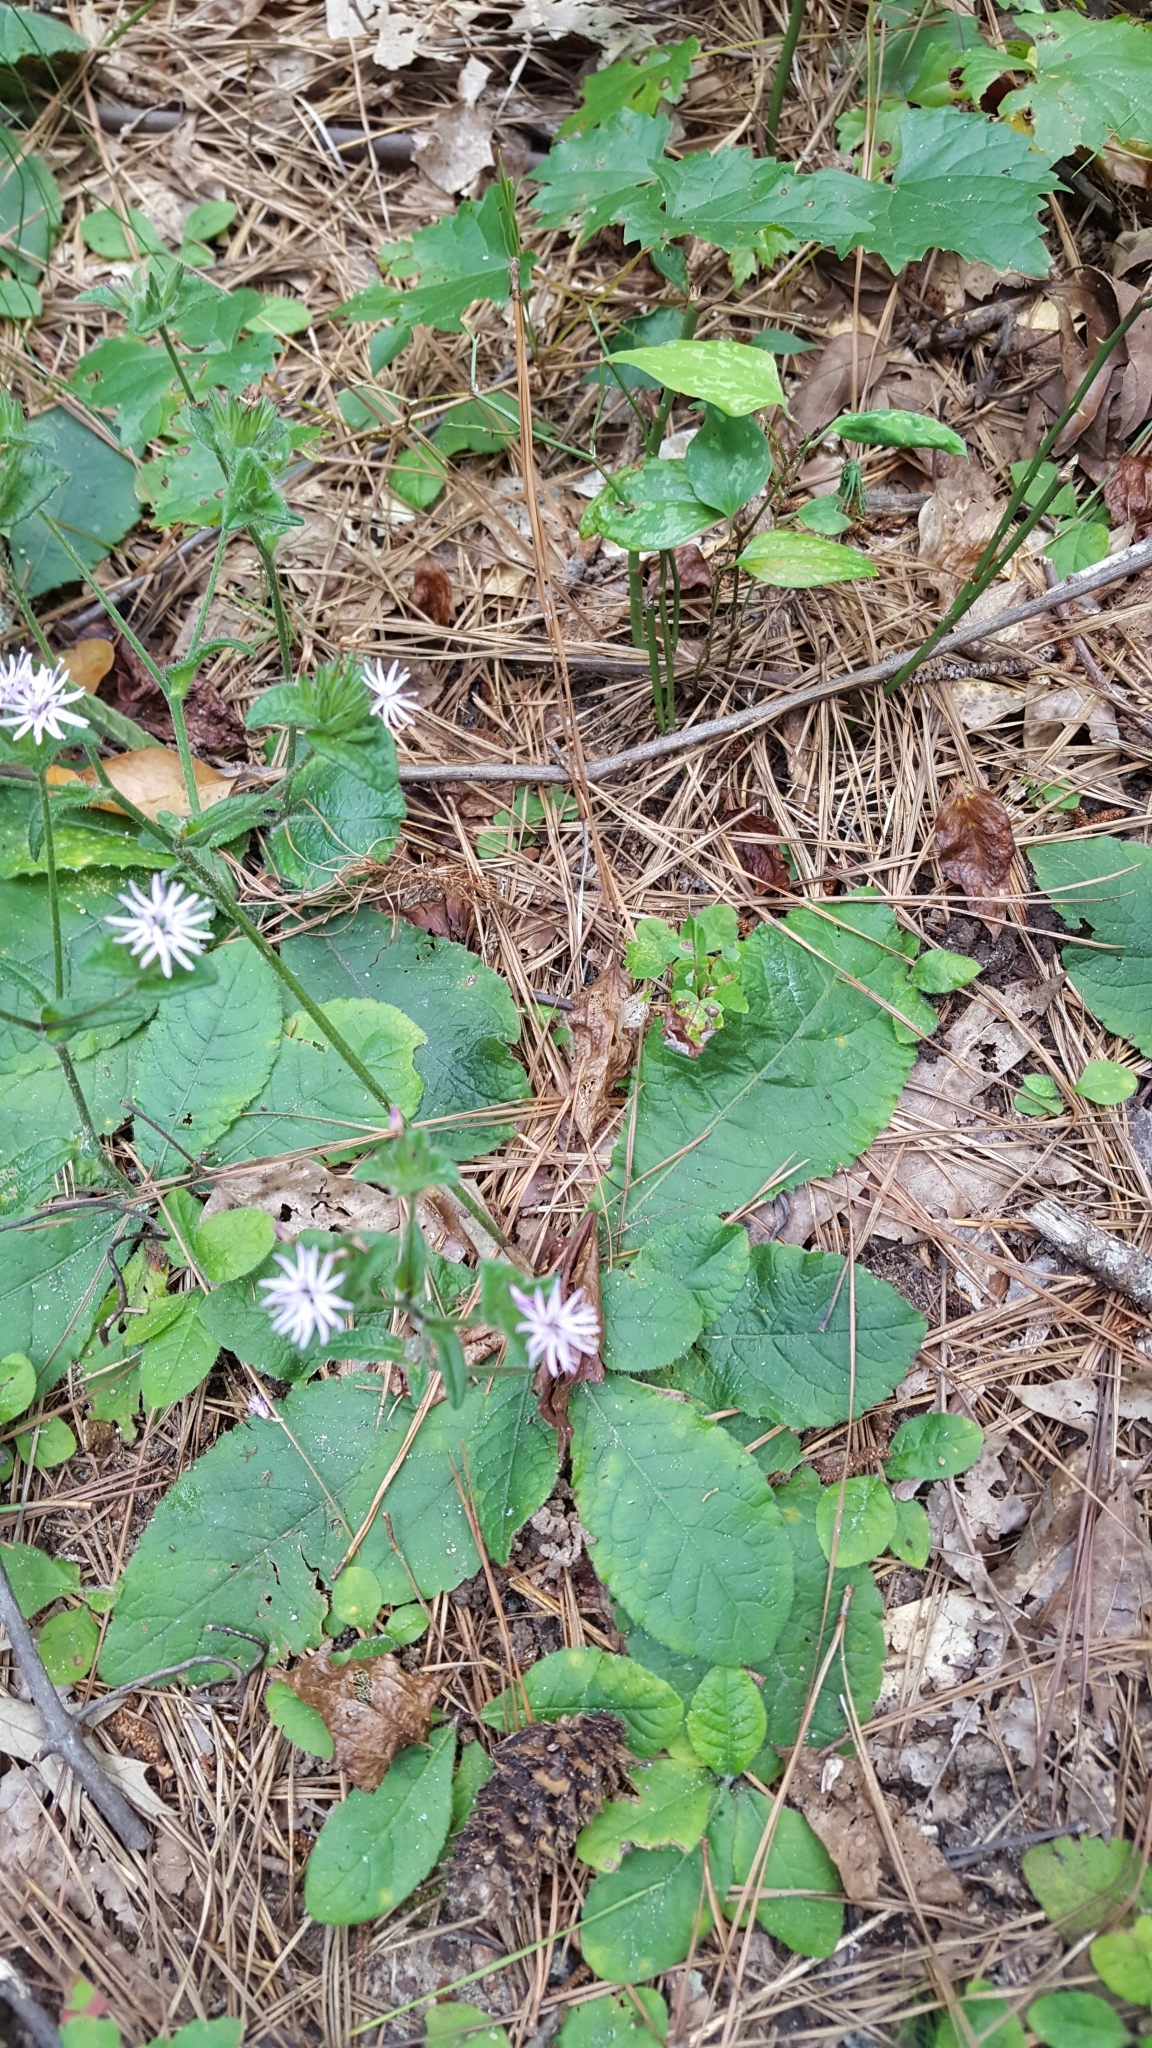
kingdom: Plantae
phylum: Tracheophyta
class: Magnoliopsida
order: Asterales
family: Asteraceae
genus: Elephantopus
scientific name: Elephantopus tomentosus
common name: Tobacco-weed
